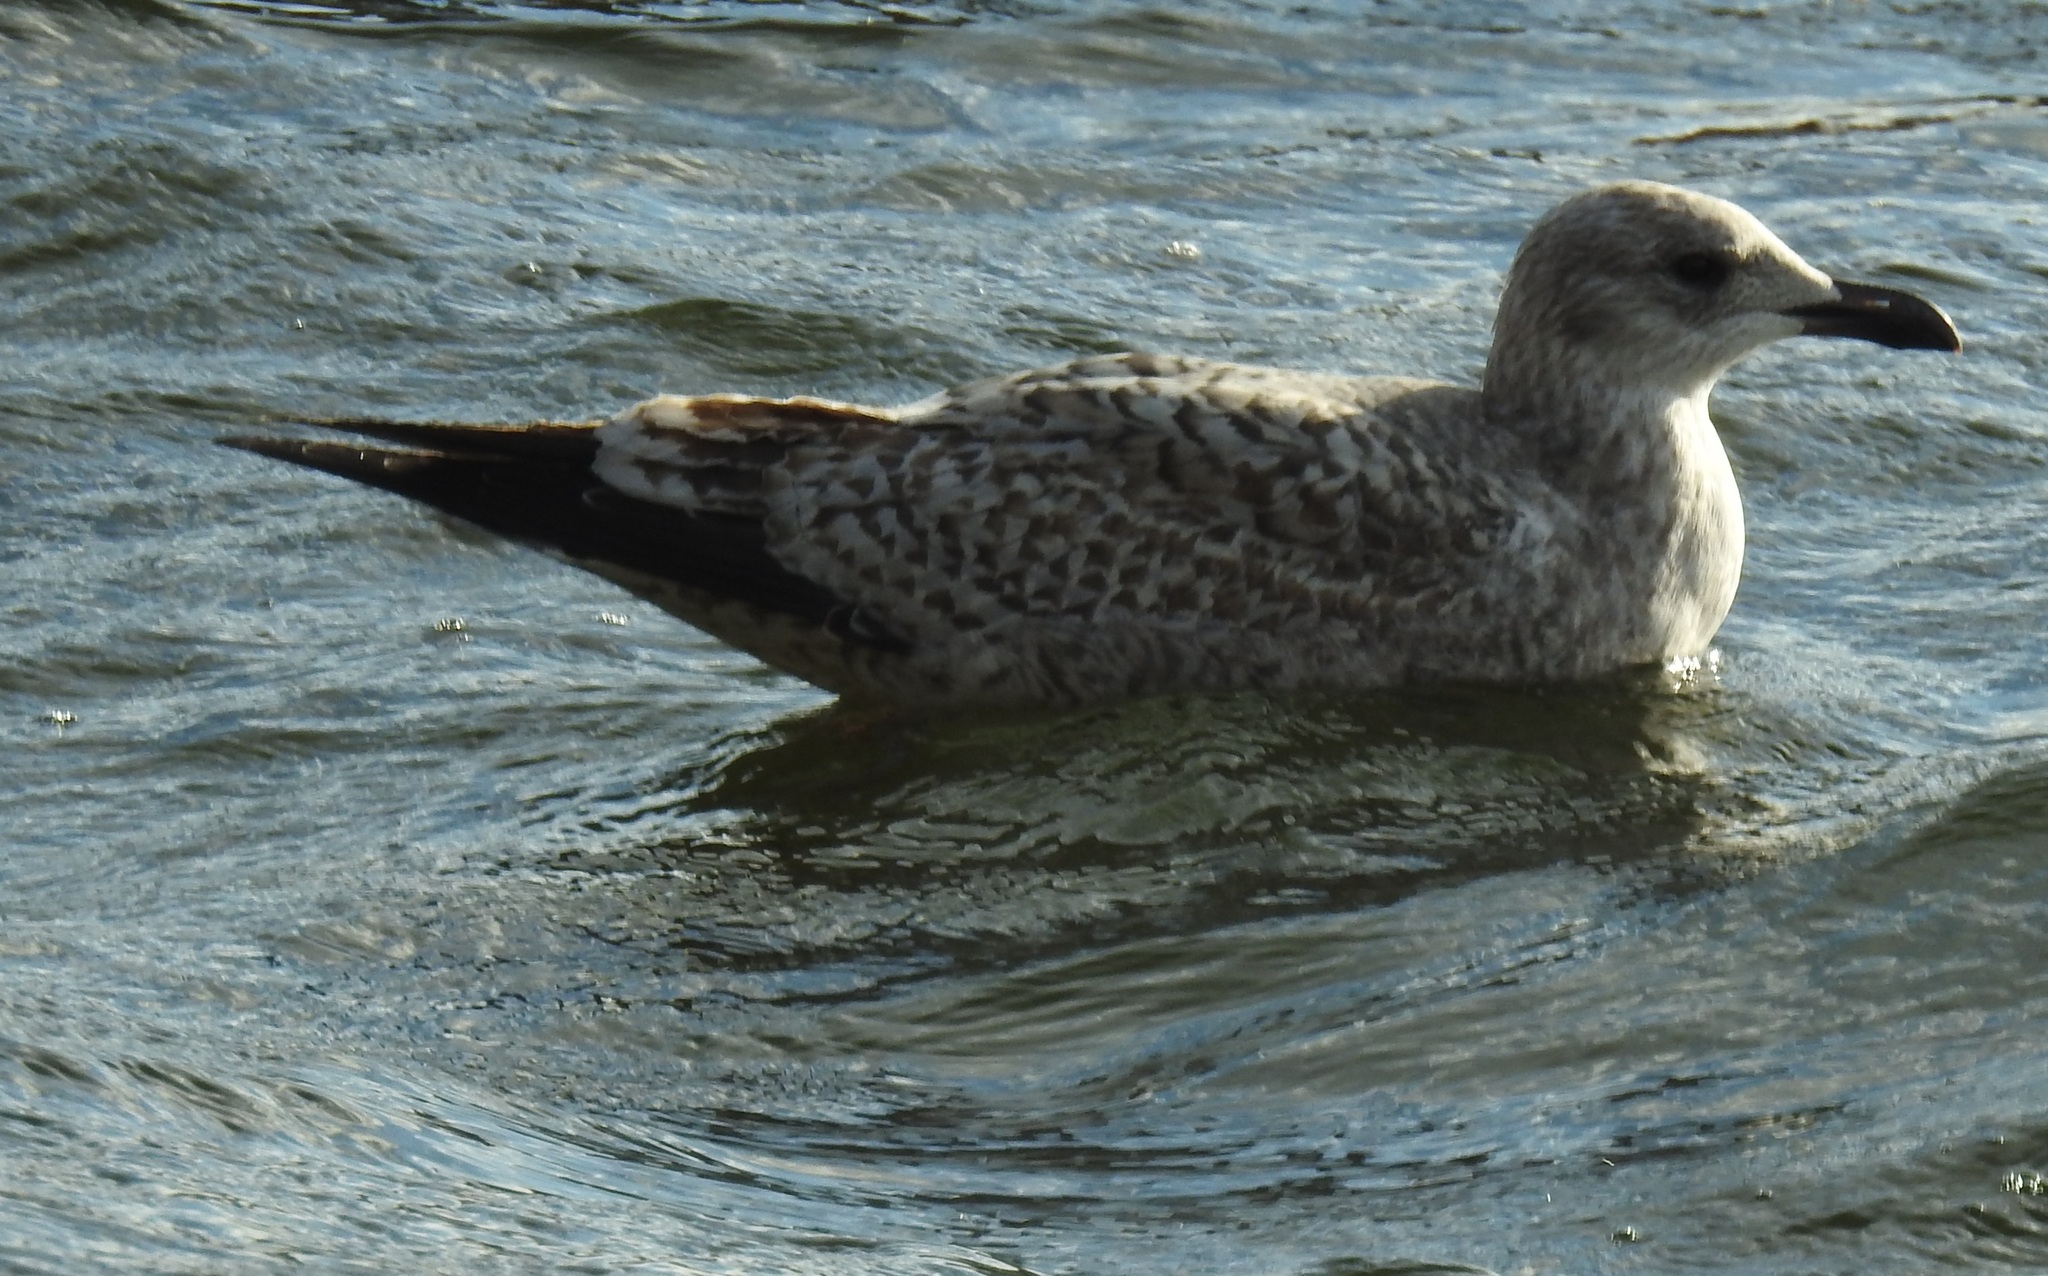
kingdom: Animalia
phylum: Chordata
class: Aves
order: Charadriiformes
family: Laridae
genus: Larus
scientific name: Larus argentatus
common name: Herring gull
